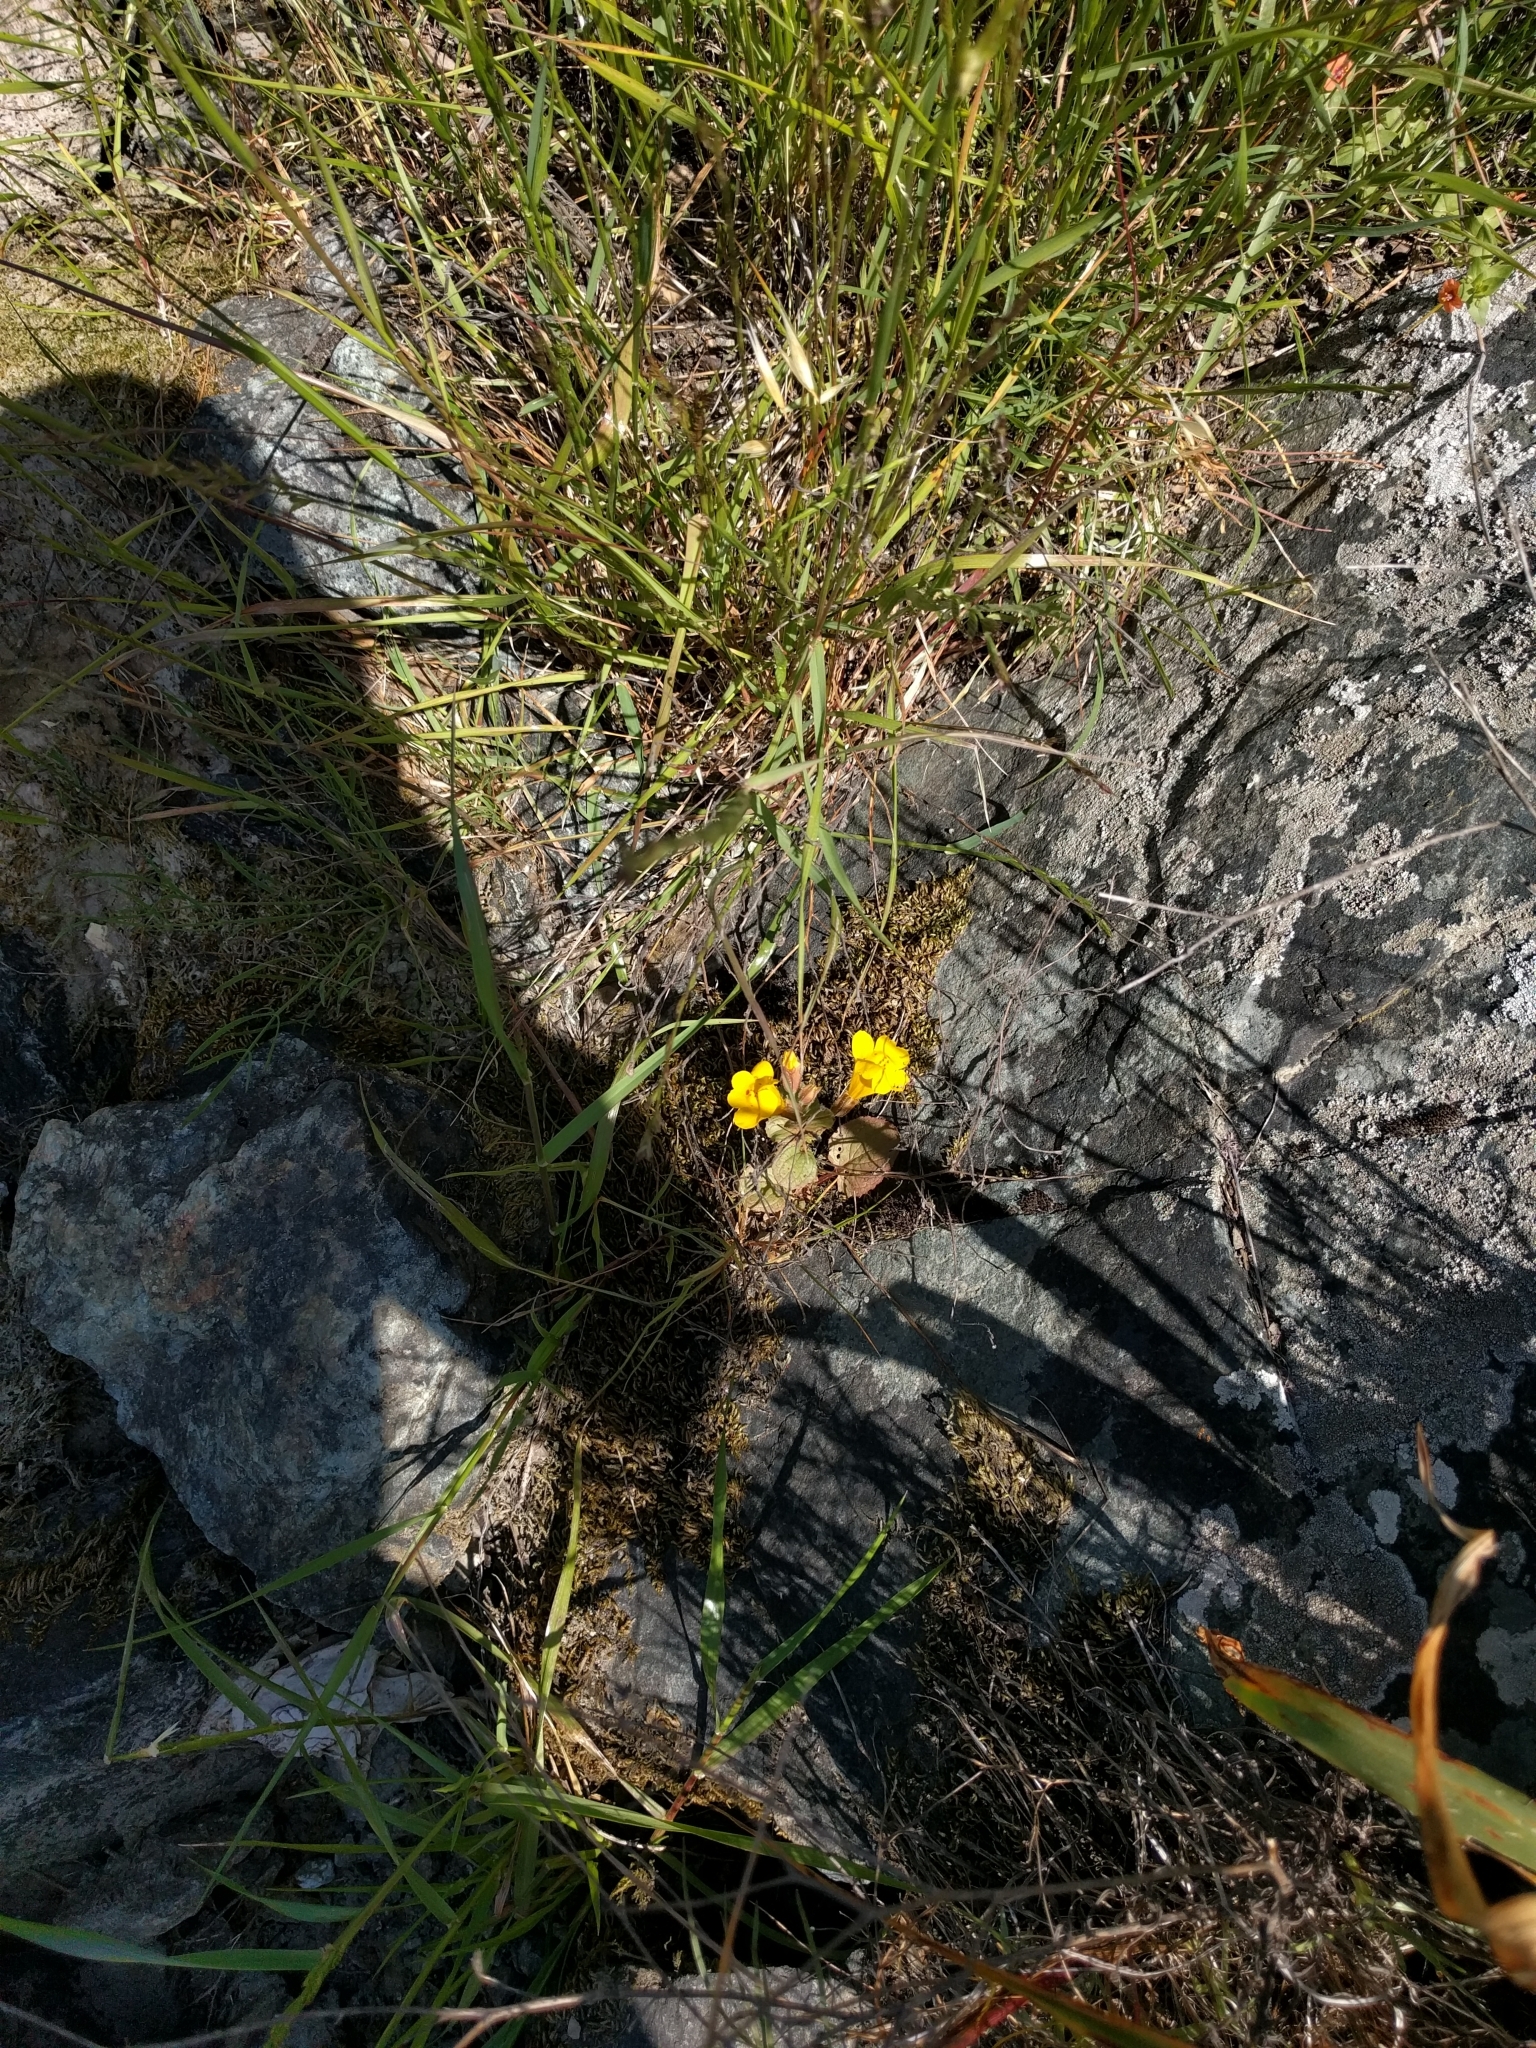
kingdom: Plantae
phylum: Tracheophyta
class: Magnoliopsida
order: Lamiales
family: Phrymaceae
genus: Erythranthe
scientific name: Erythranthe guttata
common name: Monkeyflower
